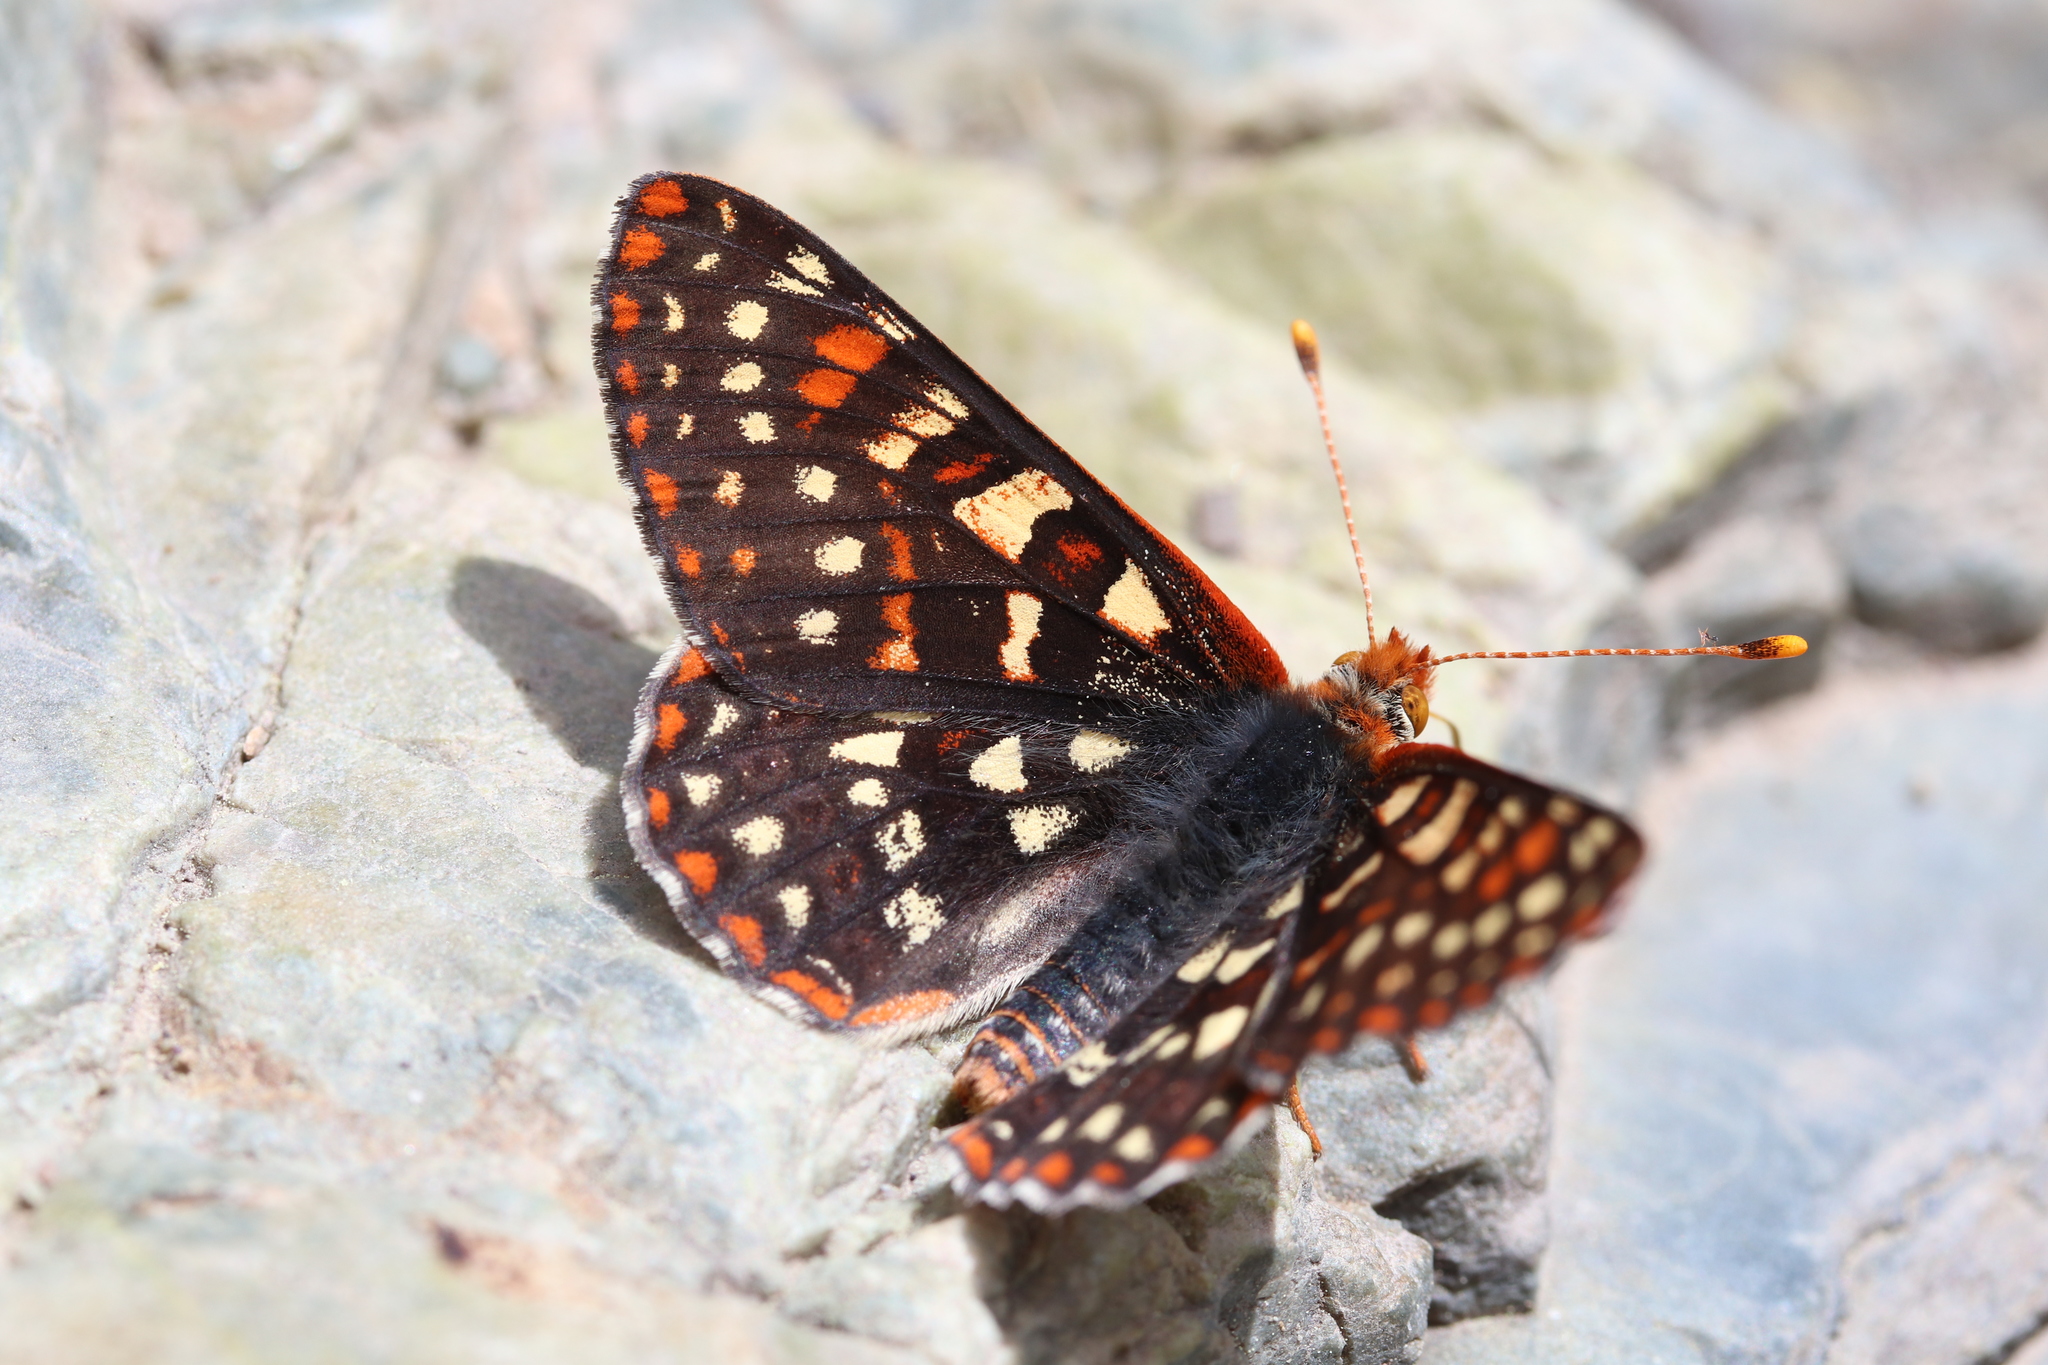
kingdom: Animalia
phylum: Arthropoda
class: Insecta
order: Lepidoptera
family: Nymphalidae
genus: Occidryas
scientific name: Occidryas colon
